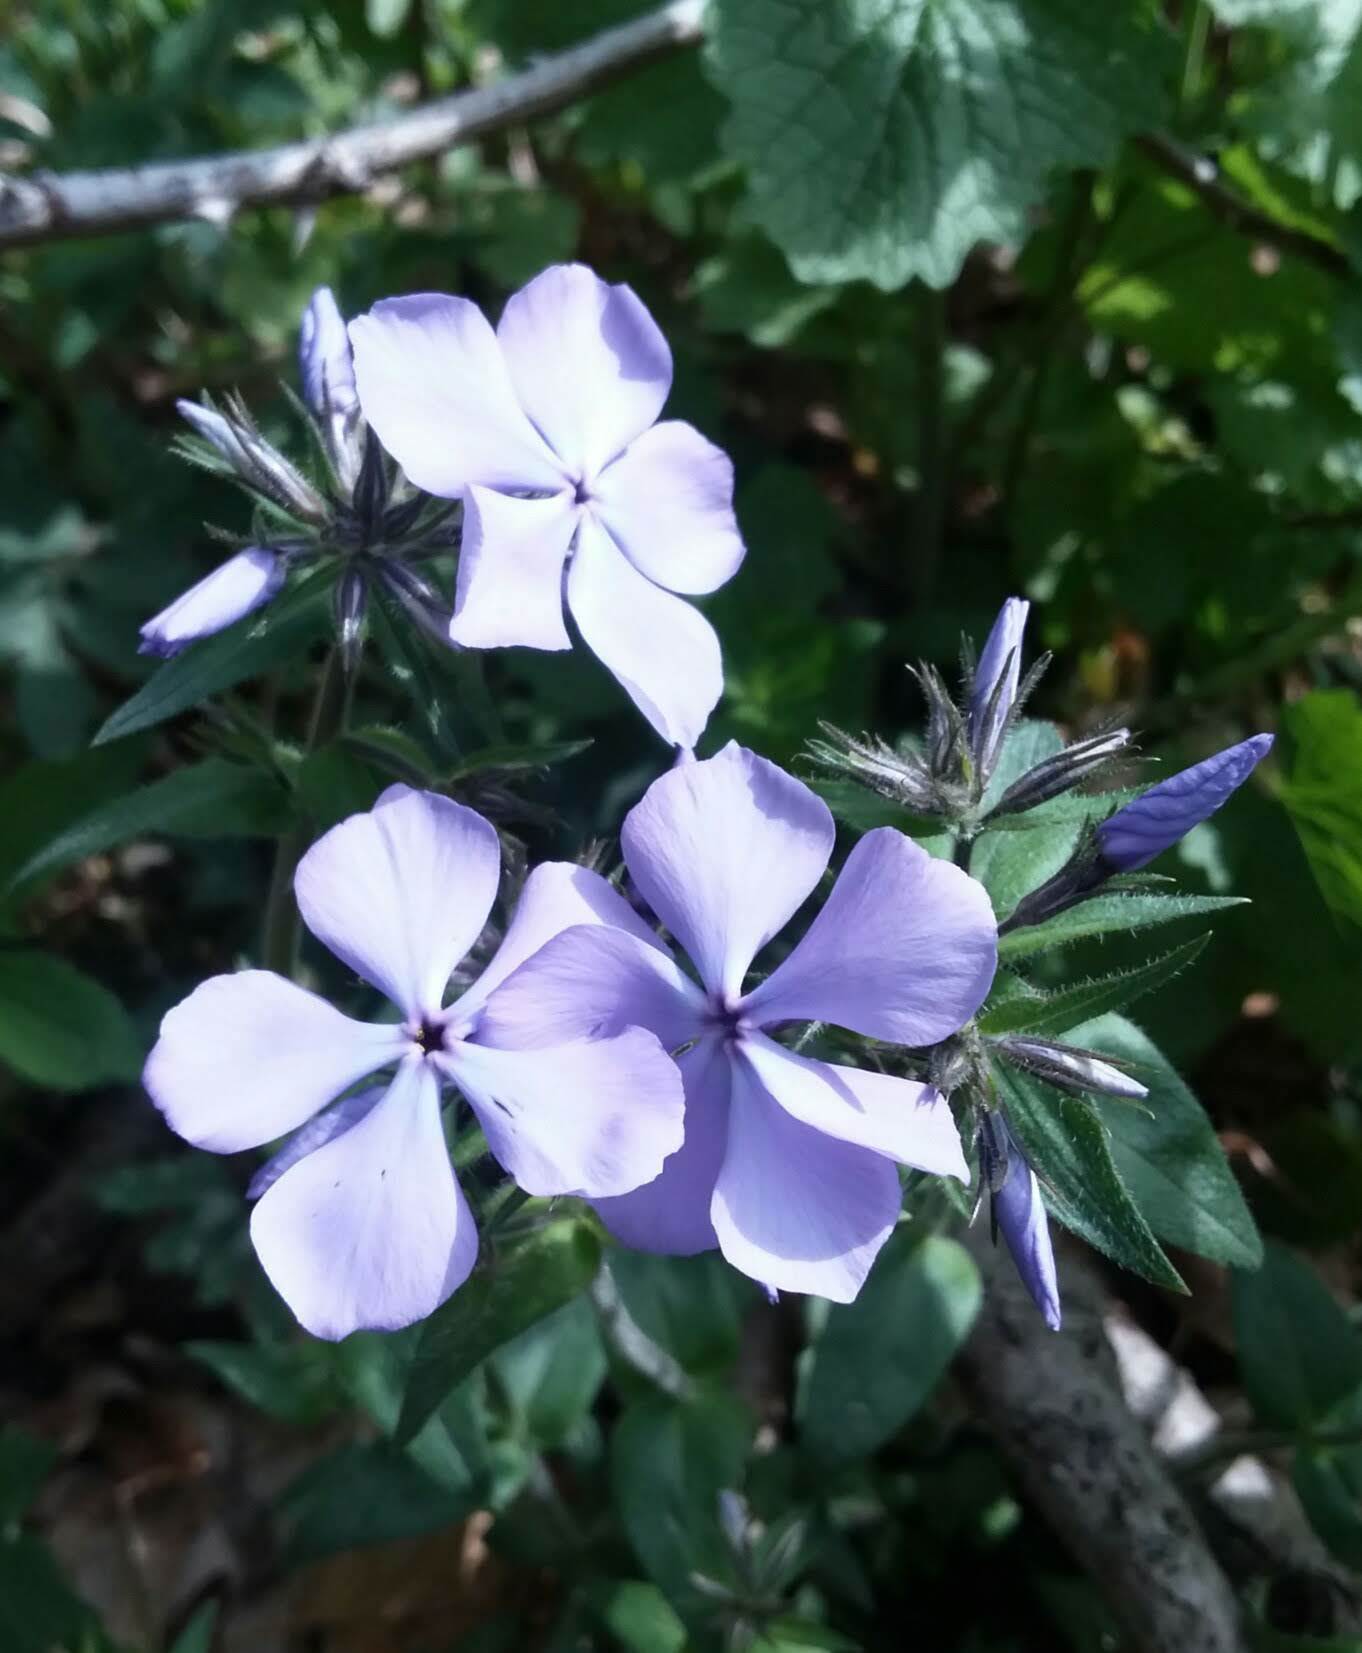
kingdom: Plantae
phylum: Tracheophyta
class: Magnoliopsida
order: Ericales
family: Polemoniaceae
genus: Phlox
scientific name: Phlox divaricata
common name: Blue phlox
